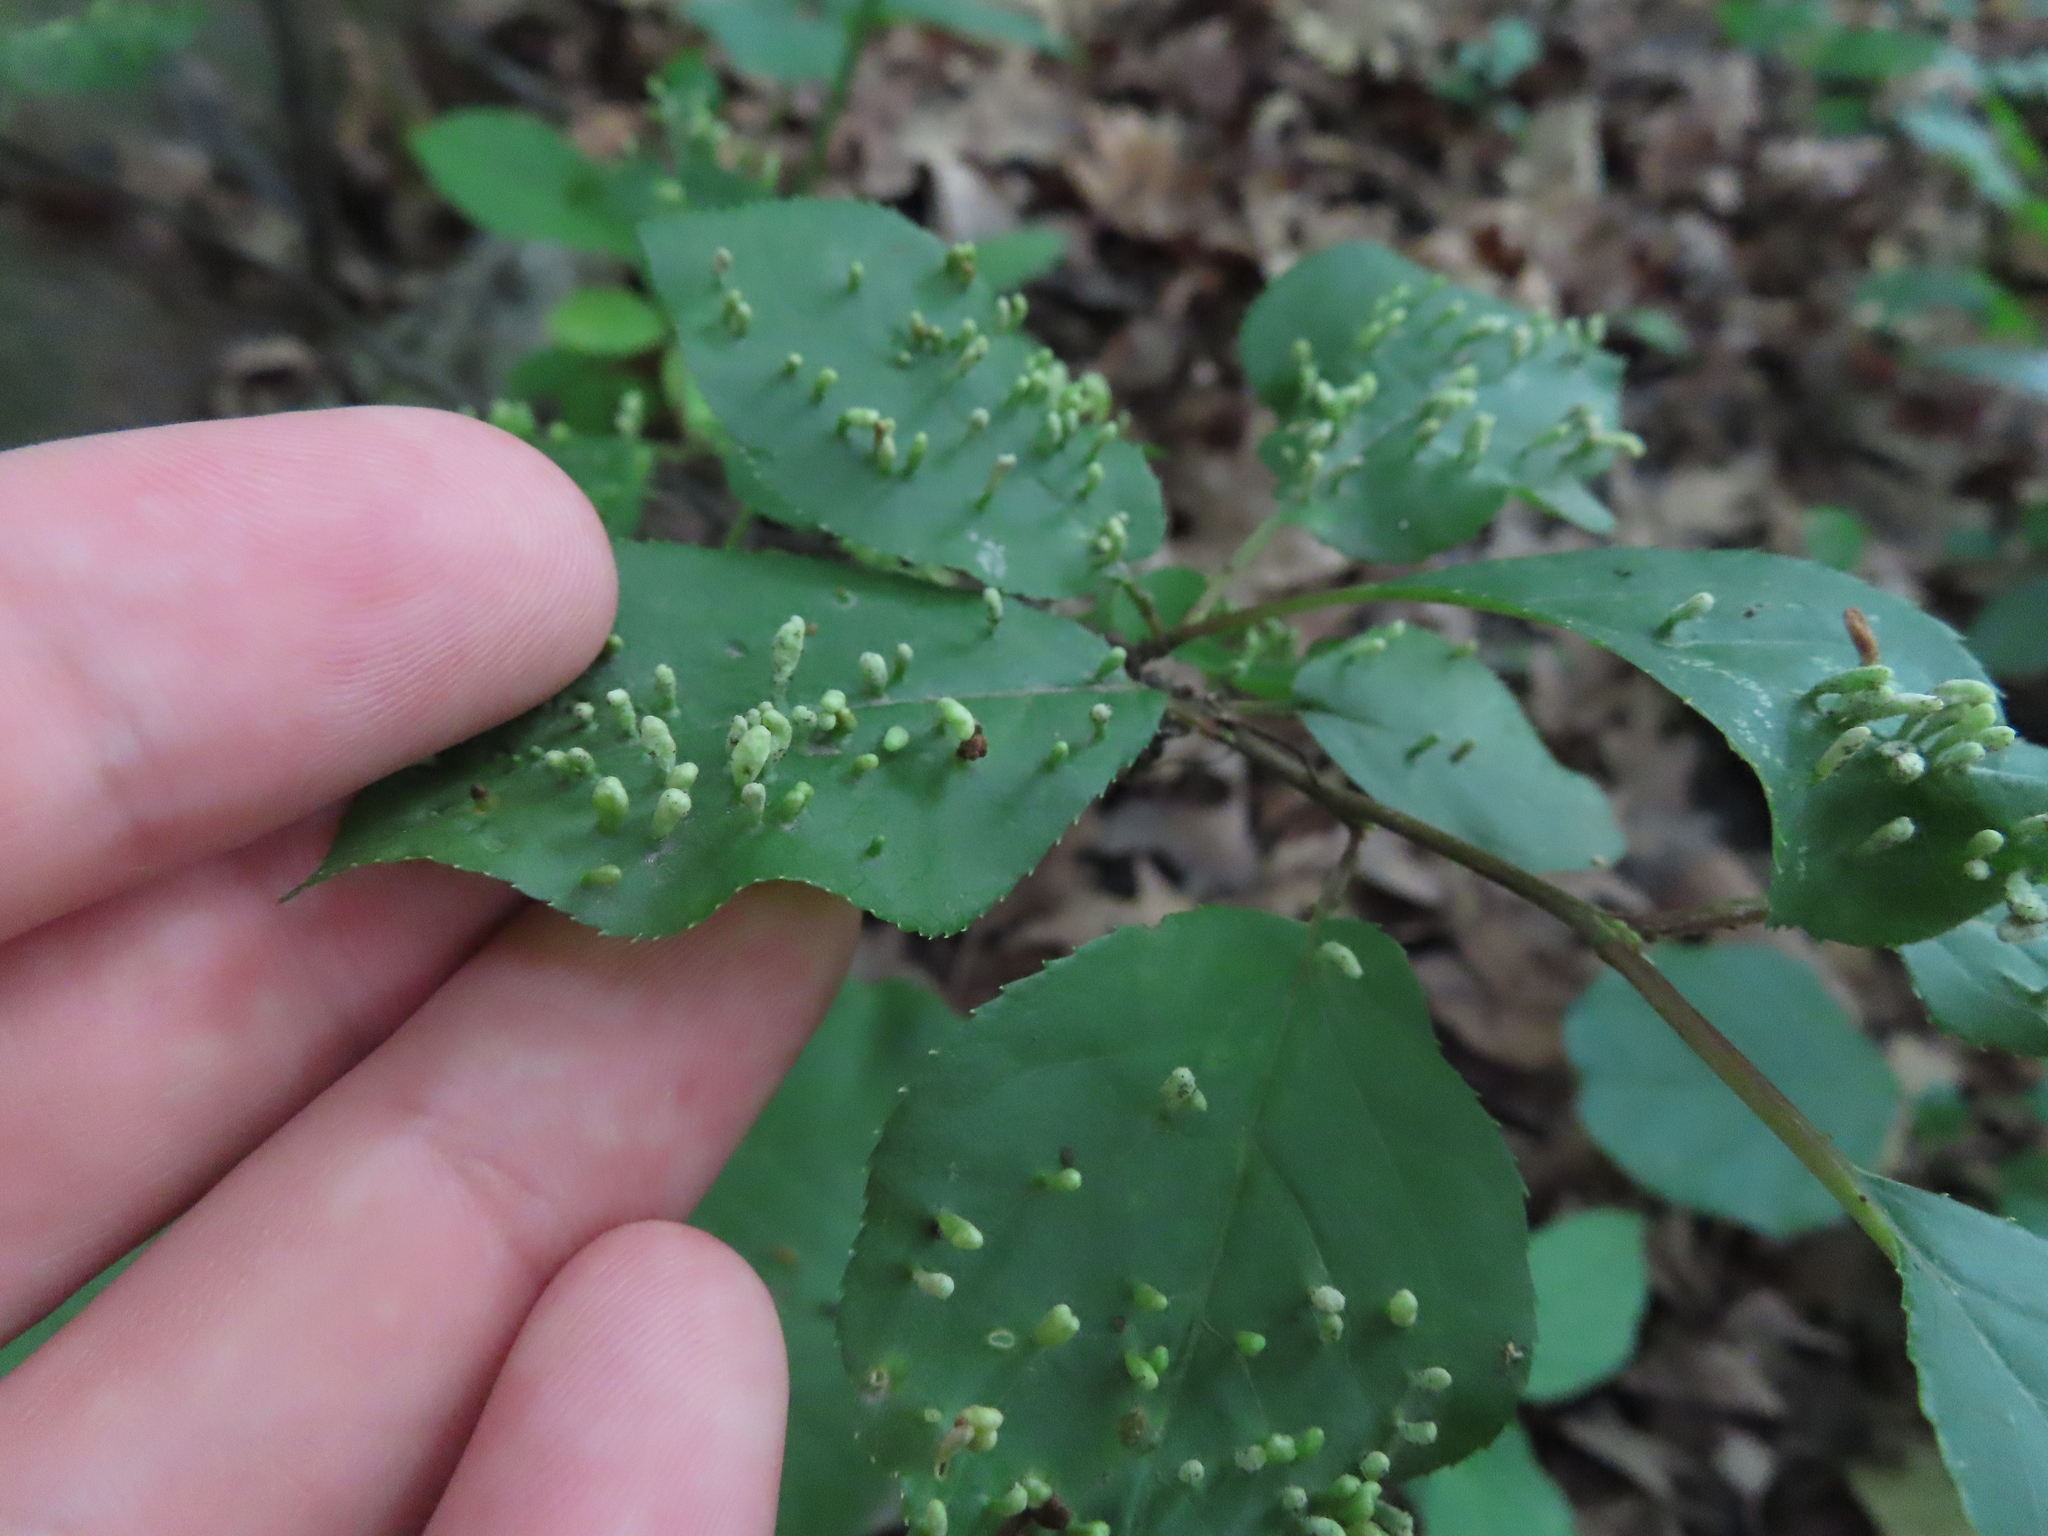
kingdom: Animalia
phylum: Arthropoda
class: Arachnida
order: Trombidiformes
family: Eriophyidae
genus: Eriophyes
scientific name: Eriophyes emarginatae
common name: Plum leaf gall mite
